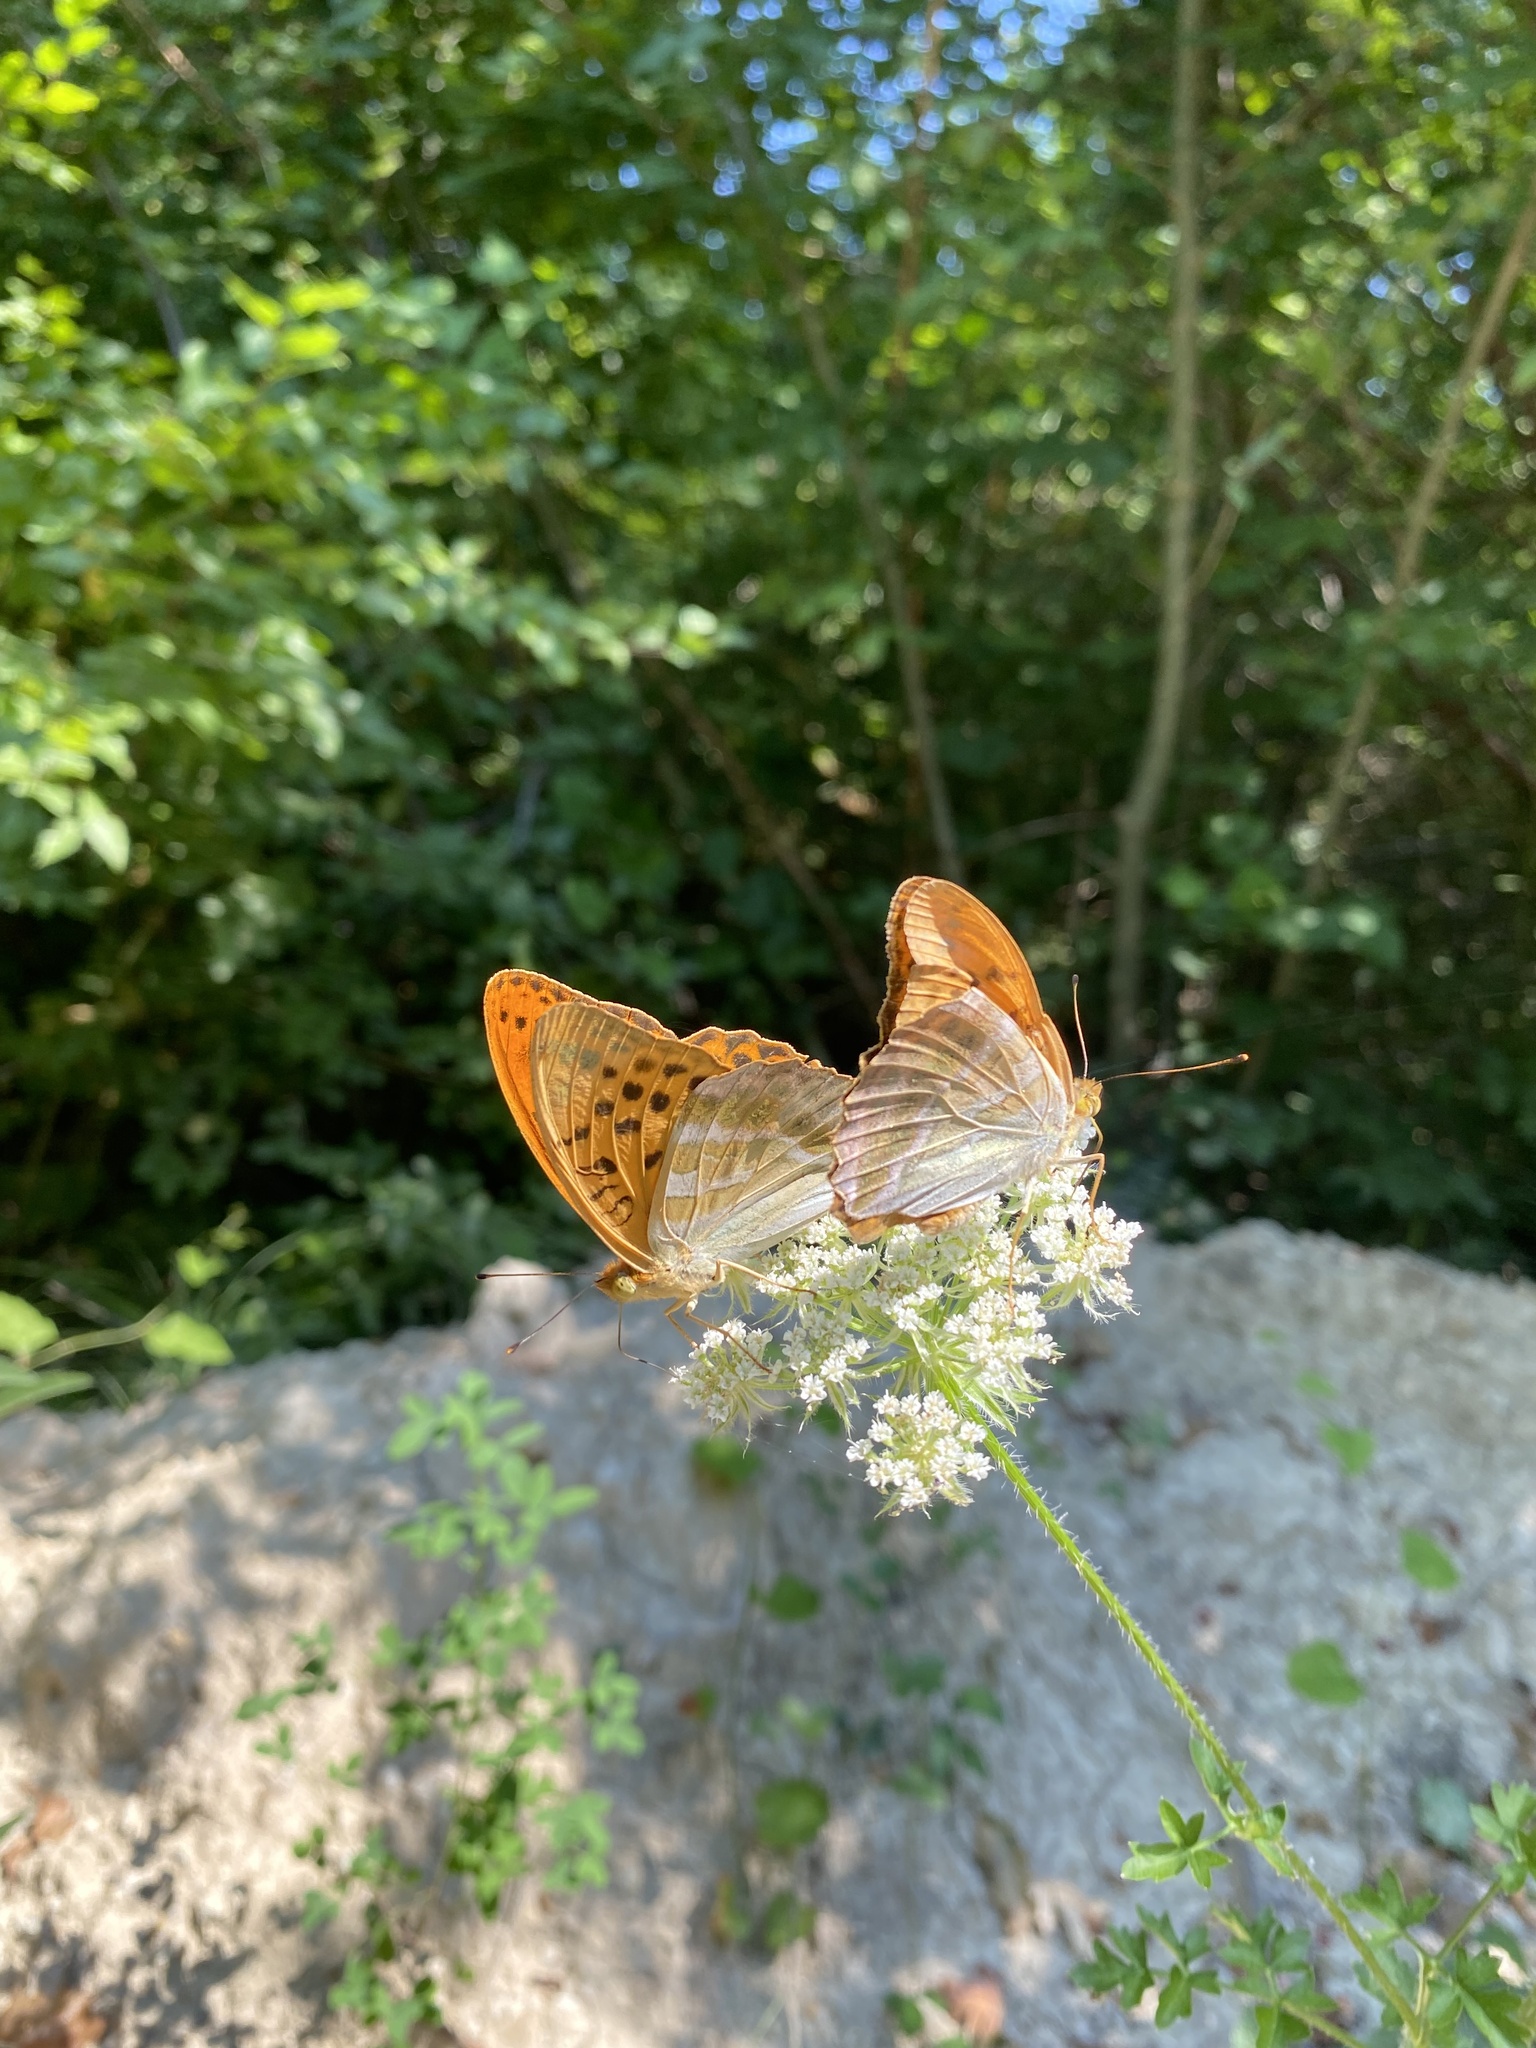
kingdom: Animalia
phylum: Arthropoda
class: Insecta
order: Lepidoptera
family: Nymphalidae
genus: Argynnis
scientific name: Argynnis paphia
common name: Silver-washed fritillary
